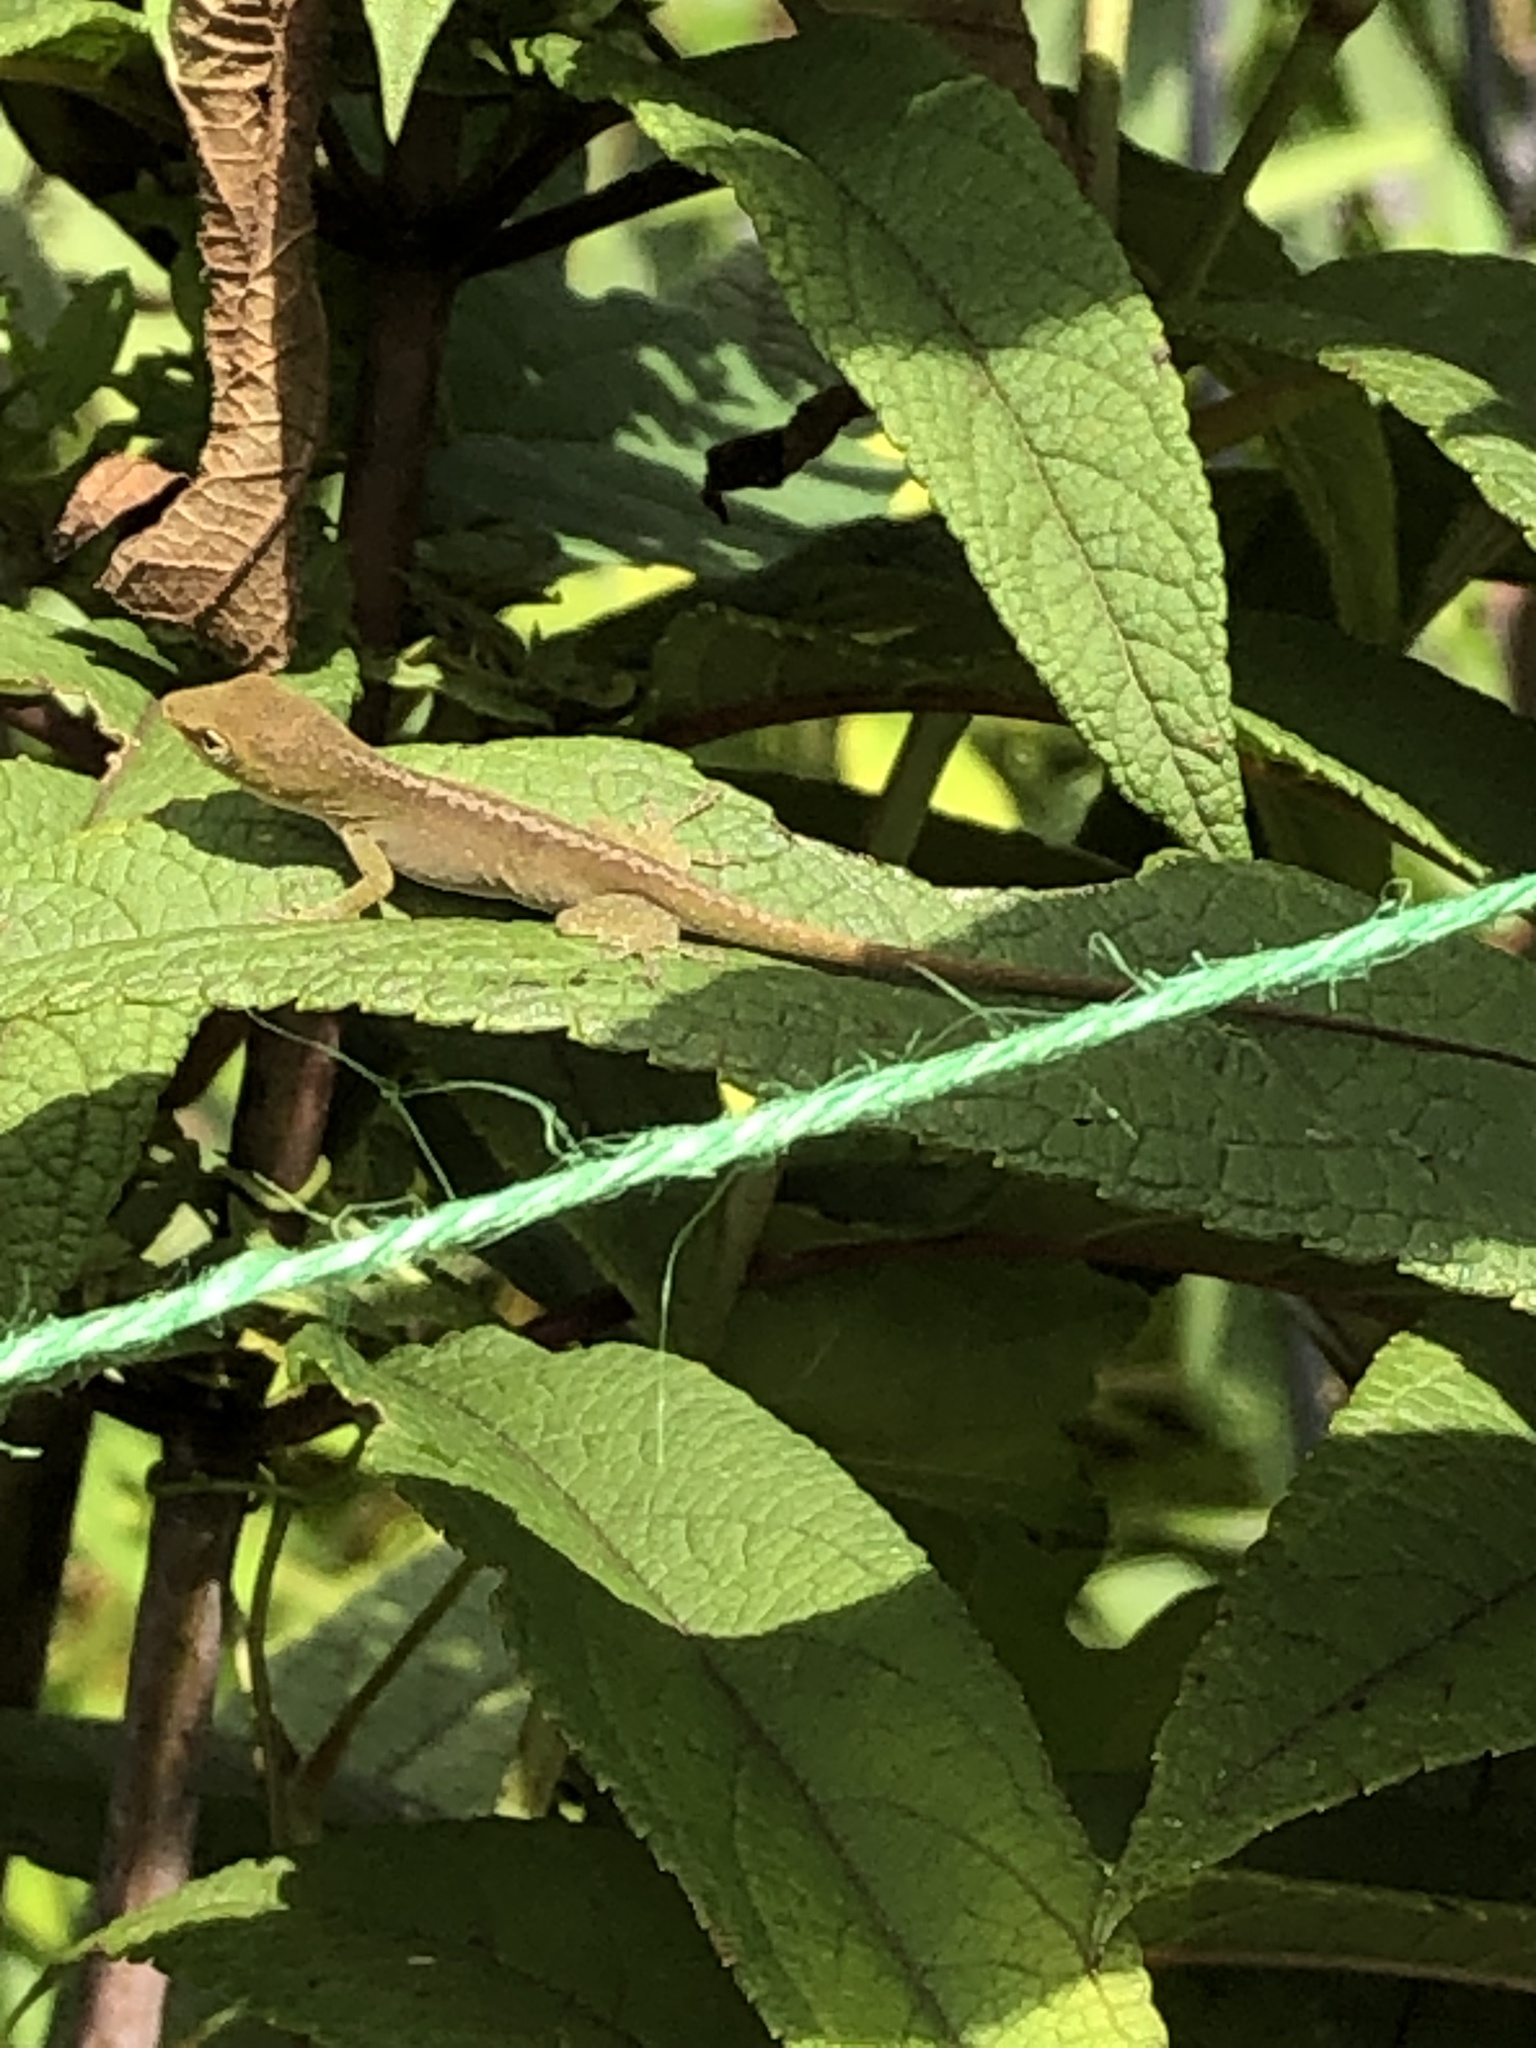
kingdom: Animalia
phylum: Chordata
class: Squamata
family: Dactyloidae
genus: Anolis
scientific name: Anolis carolinensis
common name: Green anole
